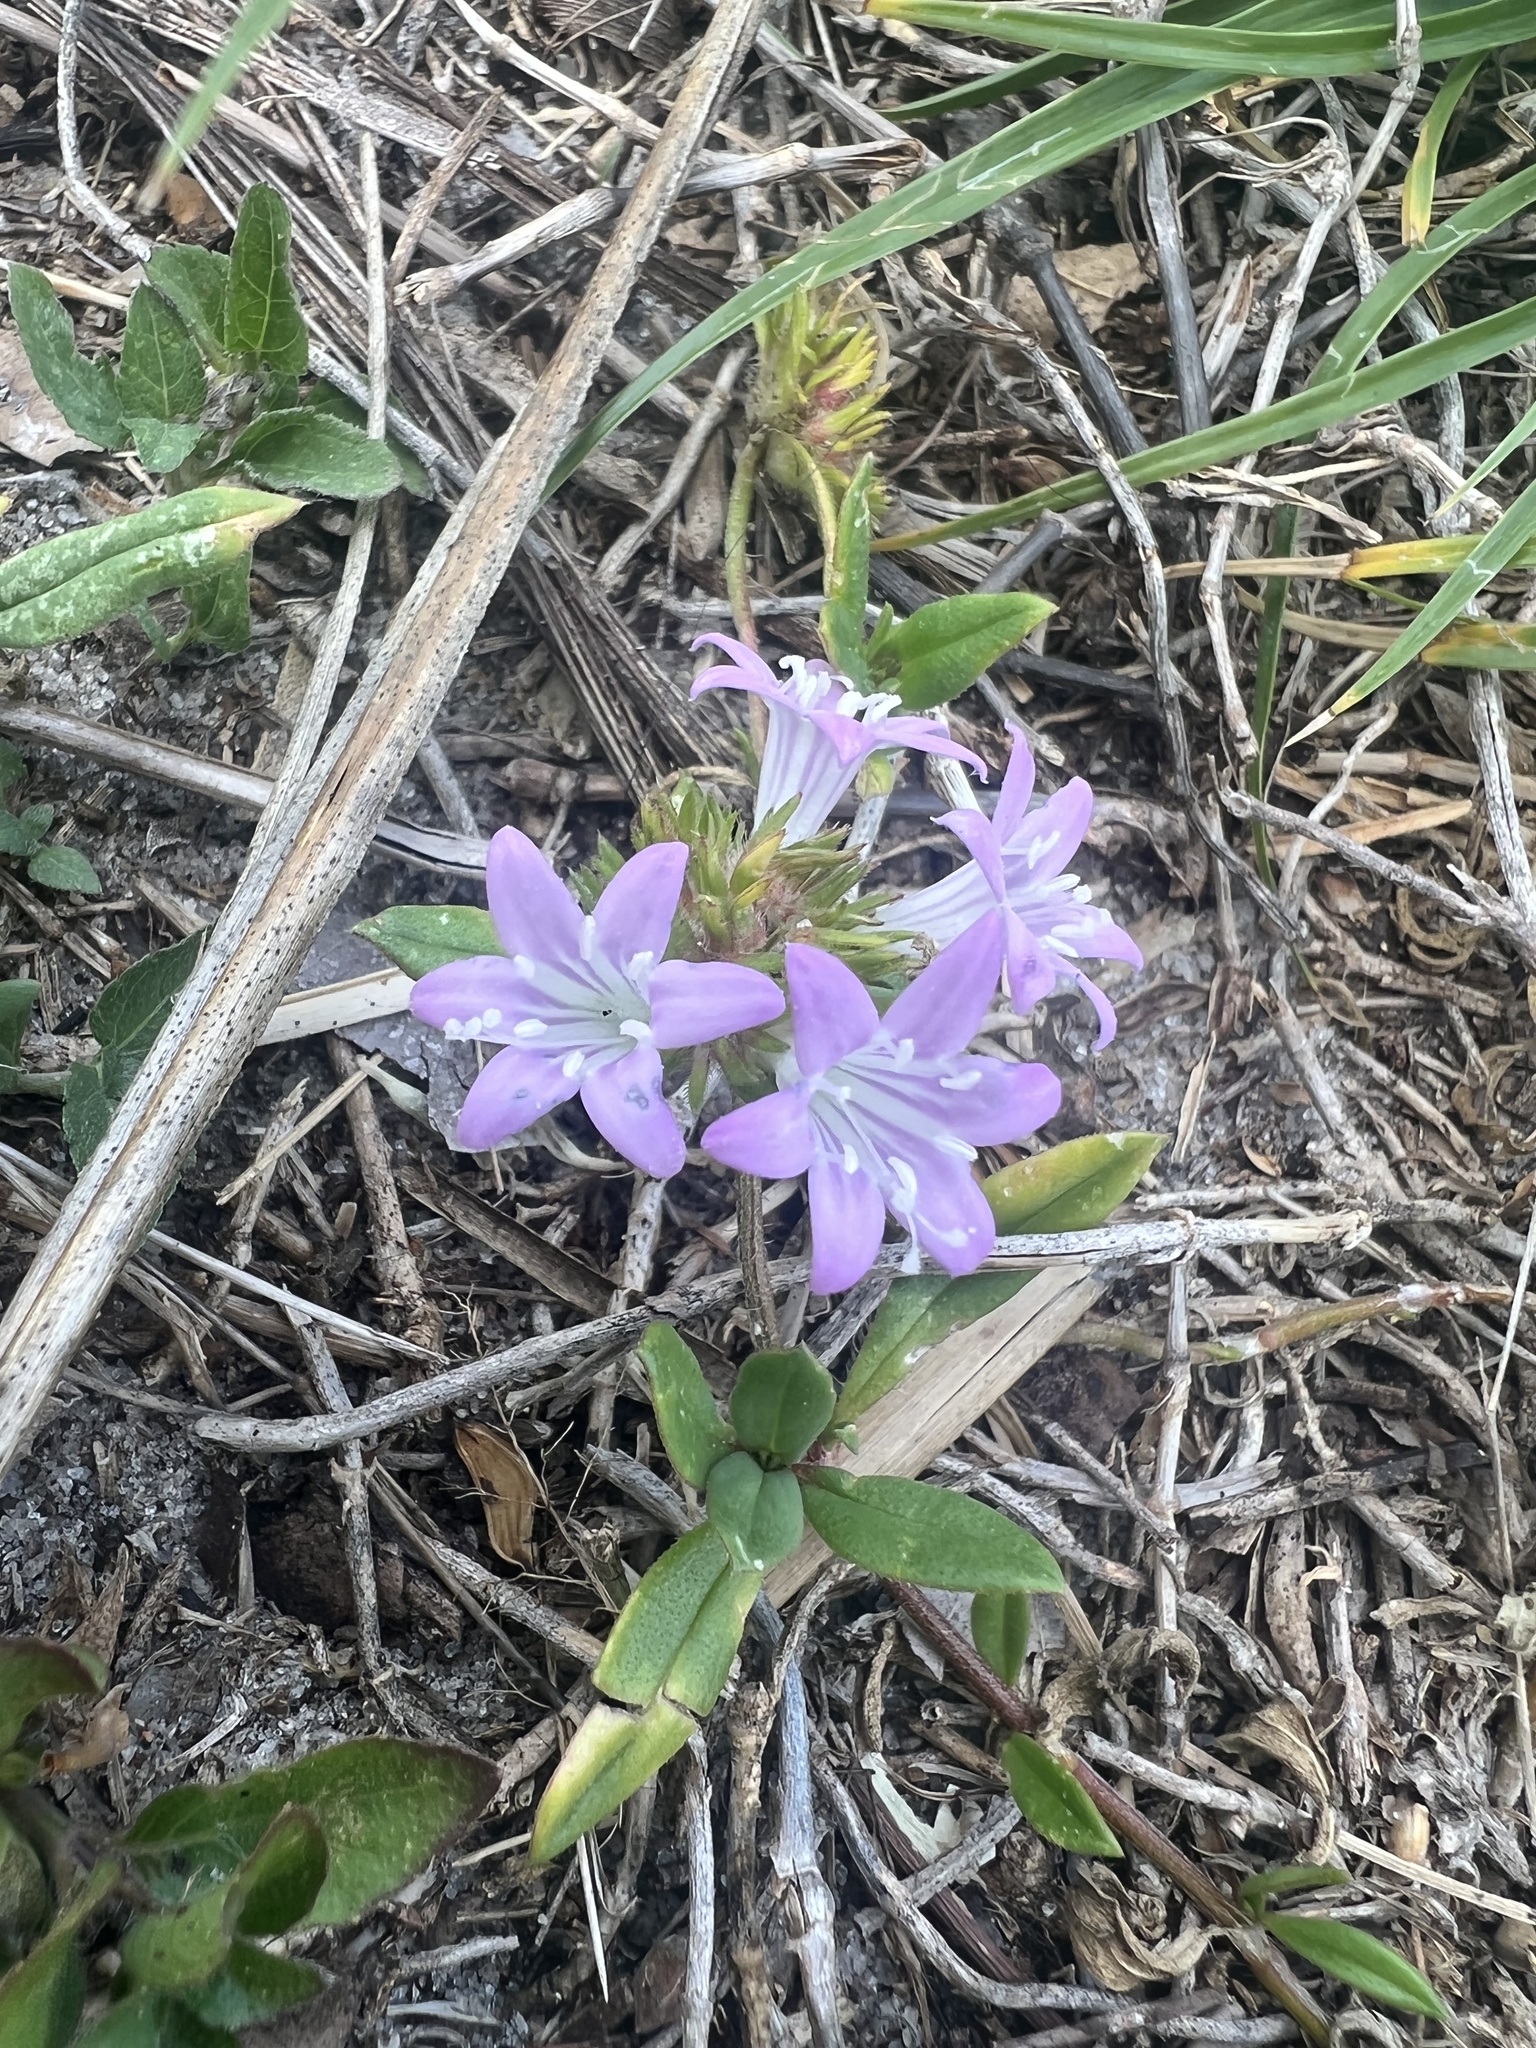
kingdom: Plantae
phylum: Tracheophyta
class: Magnoliopsida
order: Gentianales
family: Rubiaceae
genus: Richardia
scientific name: Richardia grandiflora
